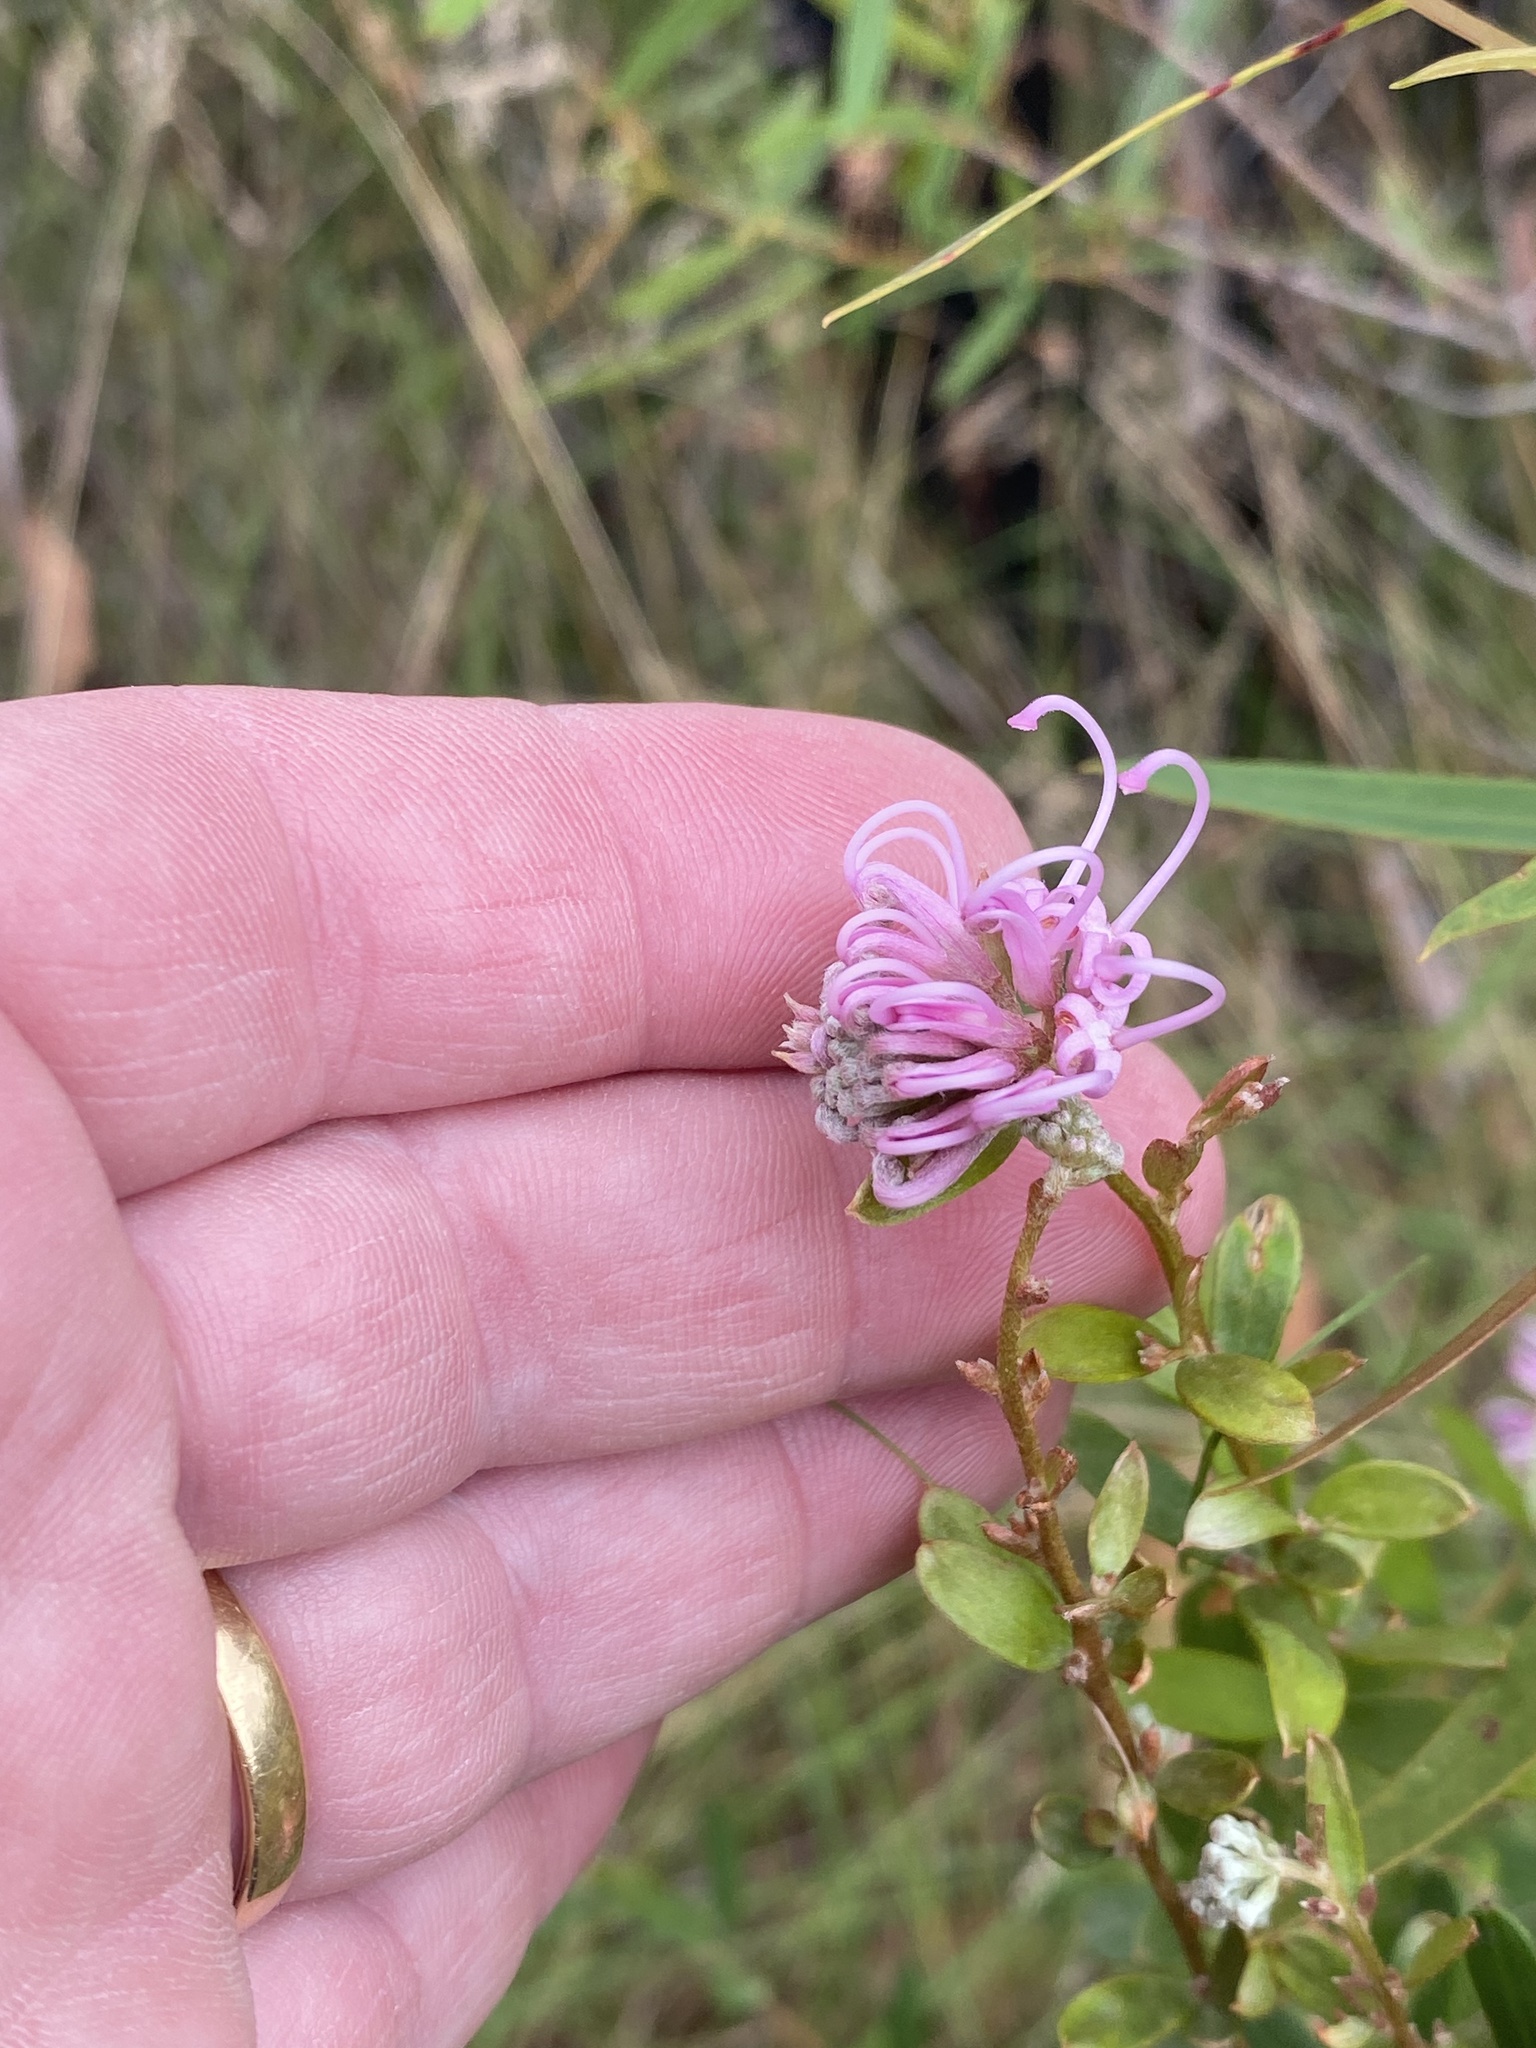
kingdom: Plantae
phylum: Tracheophyta
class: Magnoliopsida
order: Proteales
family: Proteaceae
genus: Grevillea
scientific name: Grevillea sericea
